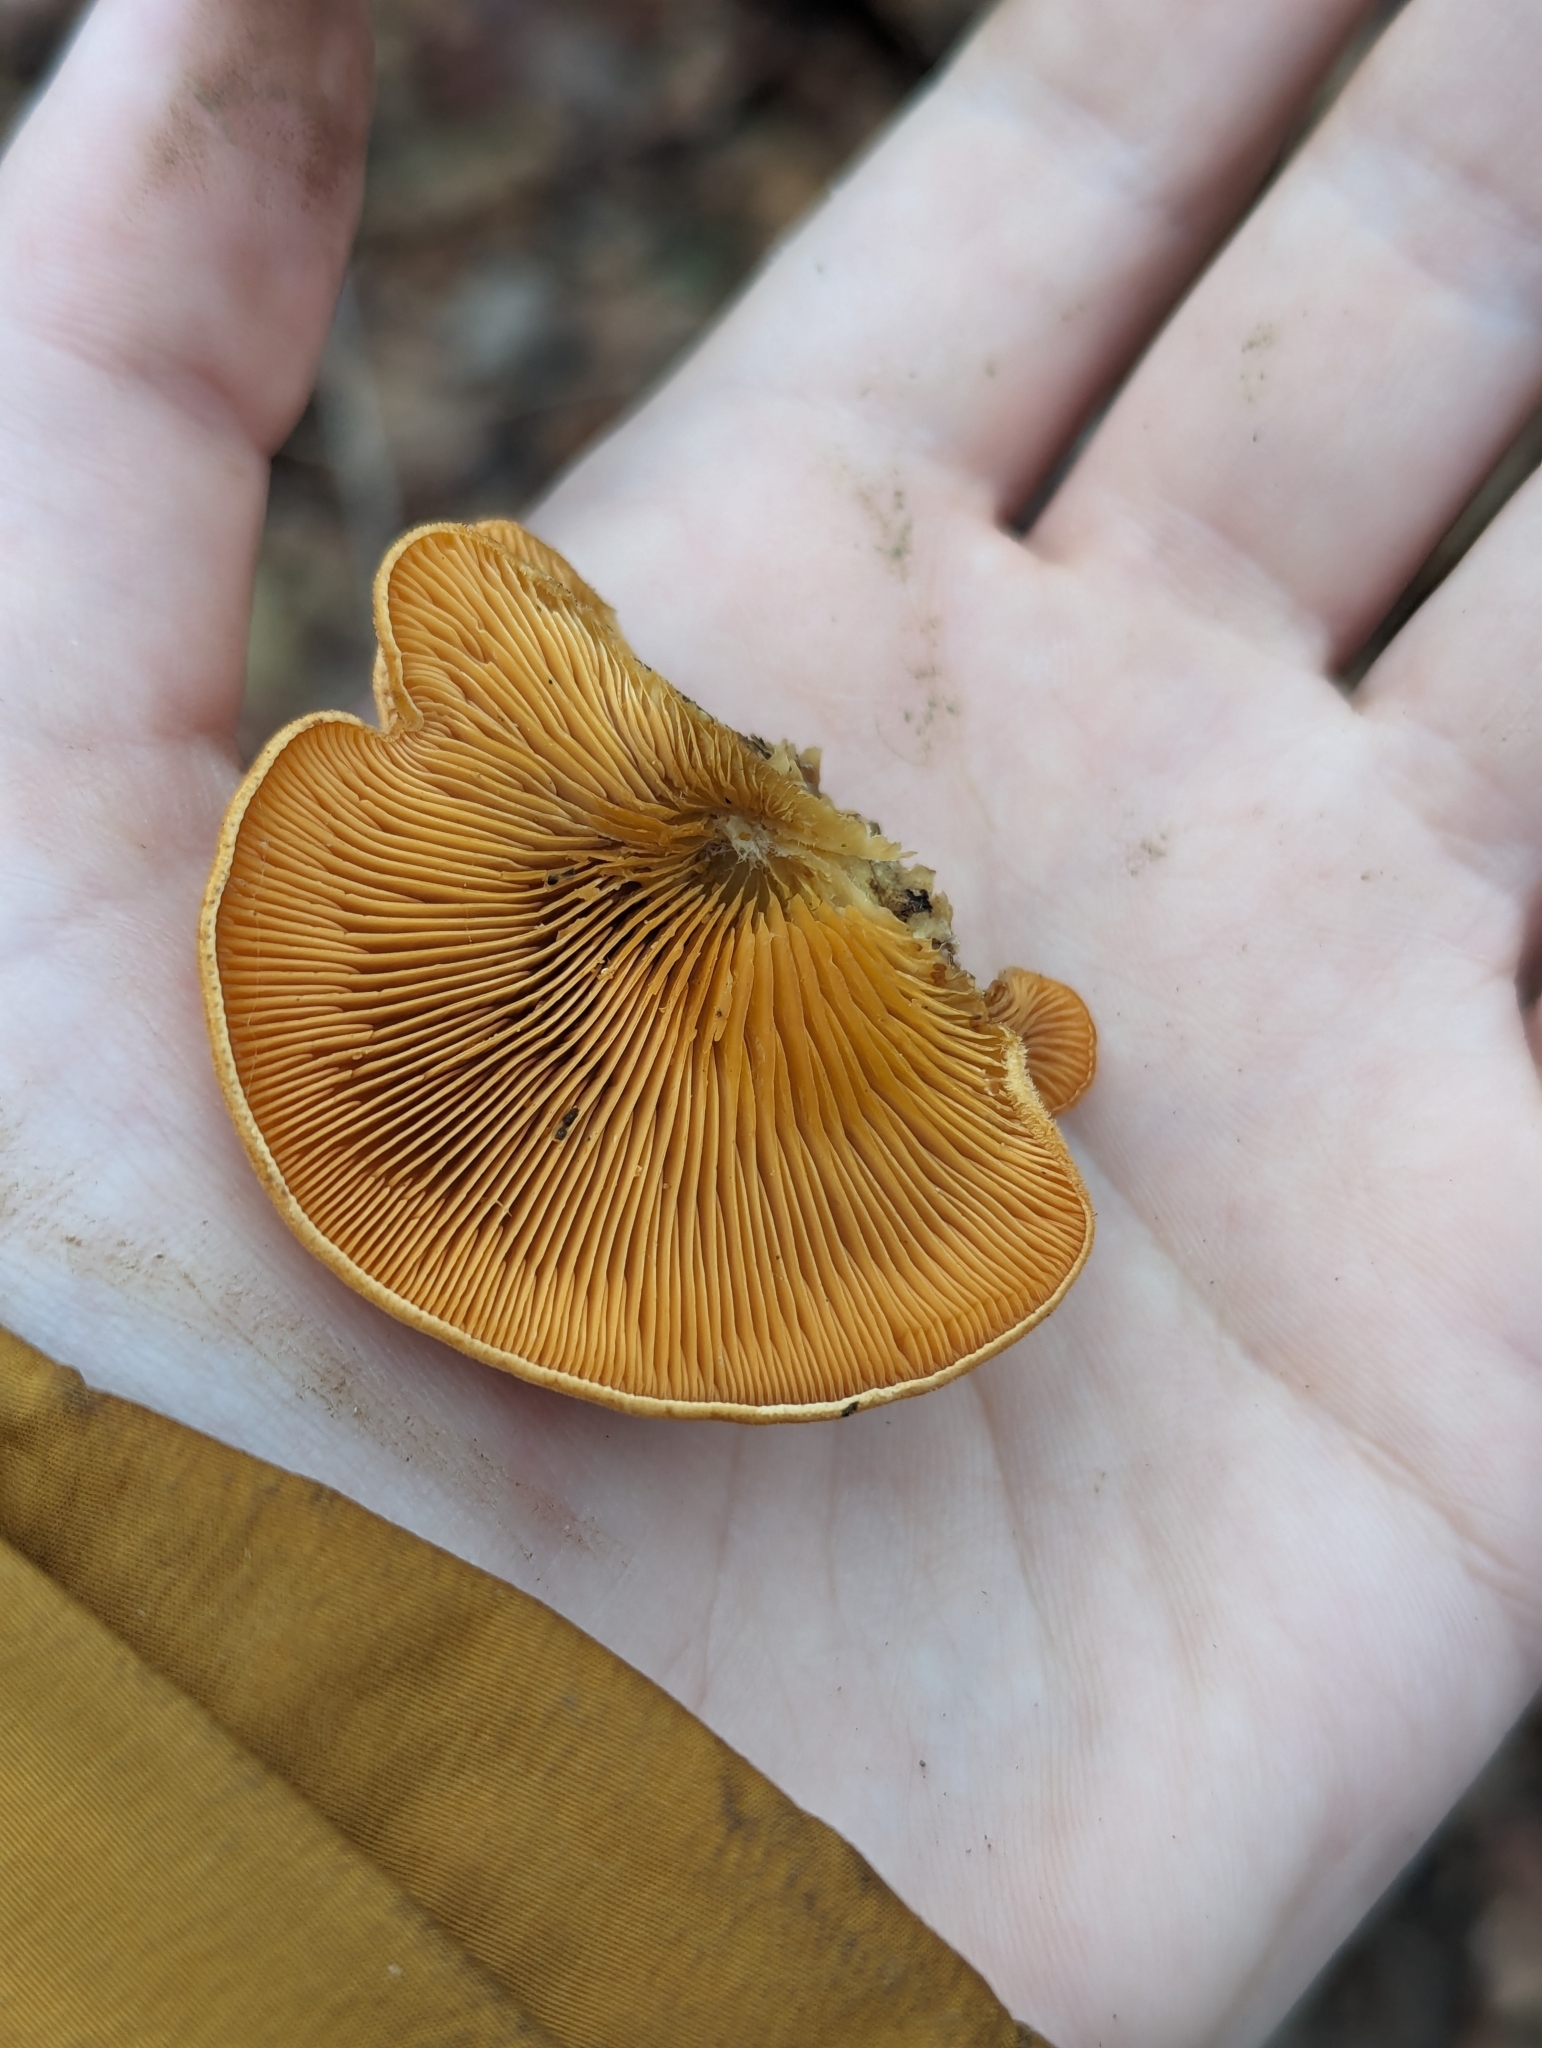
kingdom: Fungi
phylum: Basidiomycota
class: Agaricomycetes
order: Agaricales
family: Phyllotopsidaceae
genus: Phyllotopsis
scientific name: Phyllotopsis nidulans
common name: Orange mock oyster
